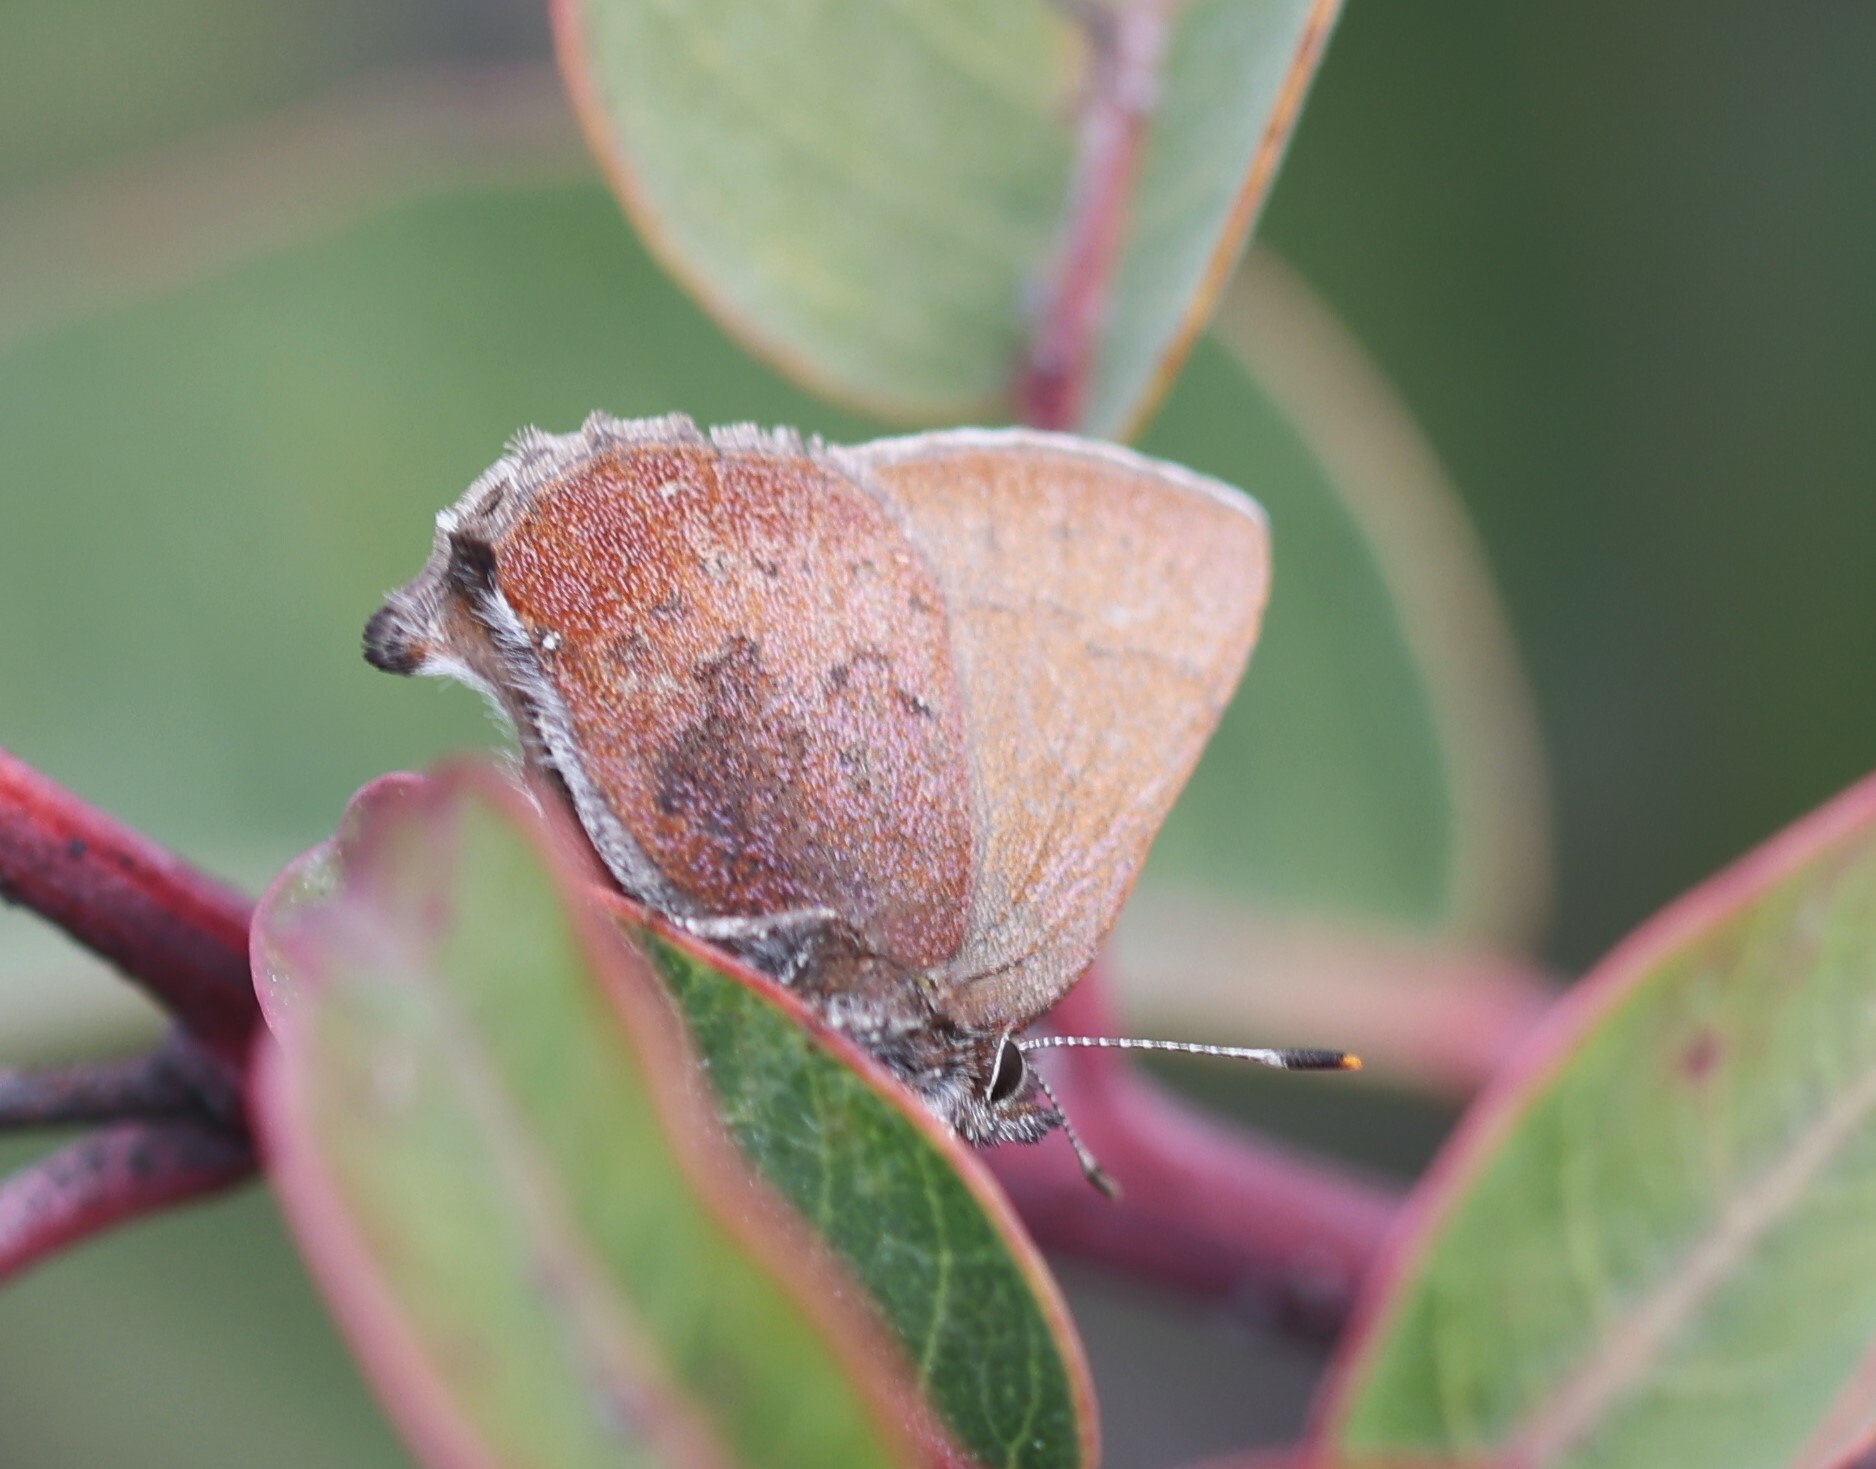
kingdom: Animalia
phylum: Arthropoda
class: Insecta
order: Lepidoptera
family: Lycaenidae
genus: Thecla
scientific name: Thecla iroides
